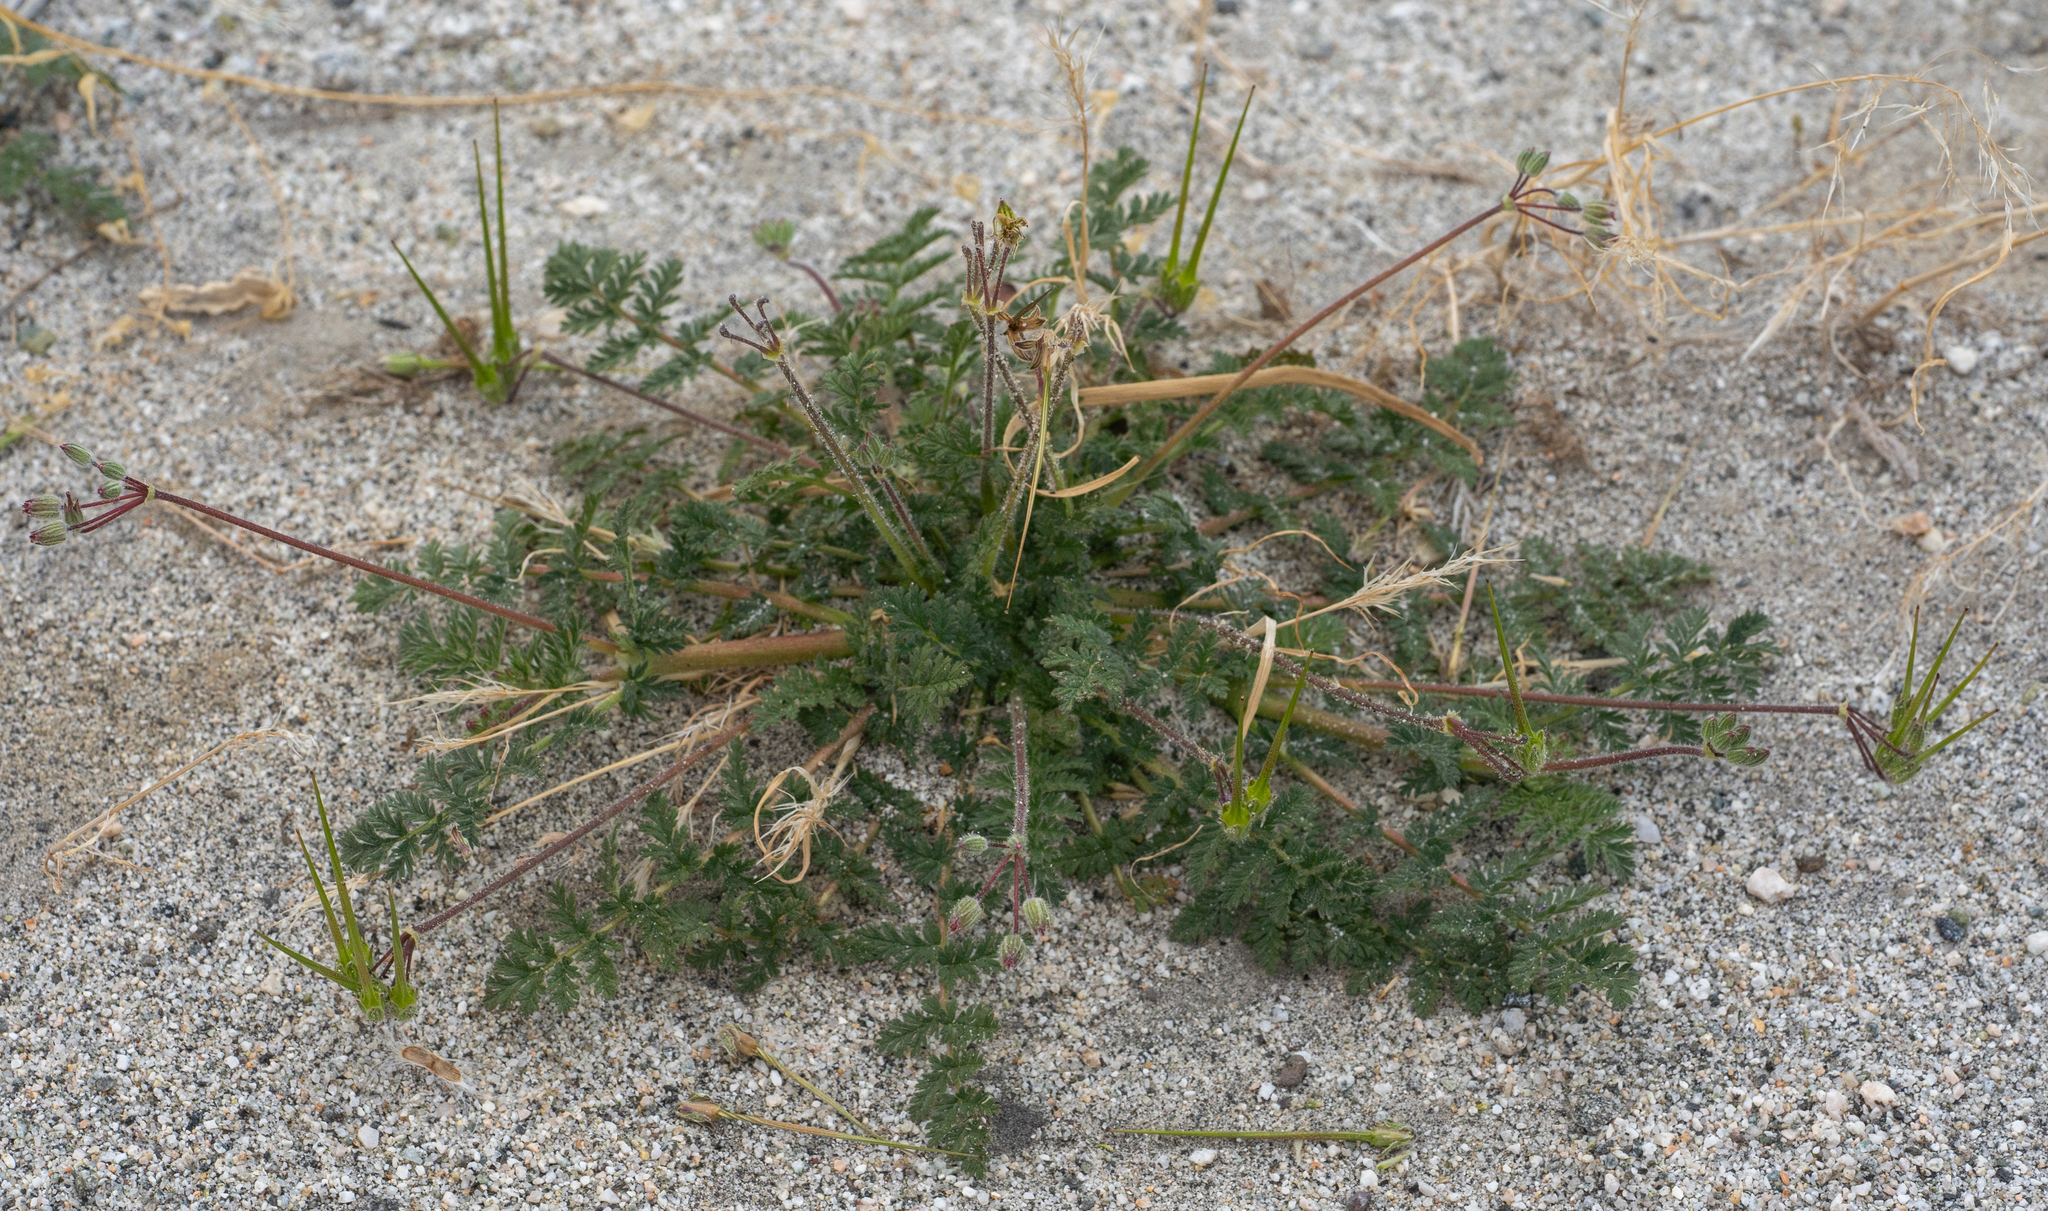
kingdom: Plantae
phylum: Tracheophyta
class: Magnoliopsida
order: Geraniales
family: Geraniaceae
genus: Erodium
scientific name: Erodium cicutarium
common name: Common stork's-bill
